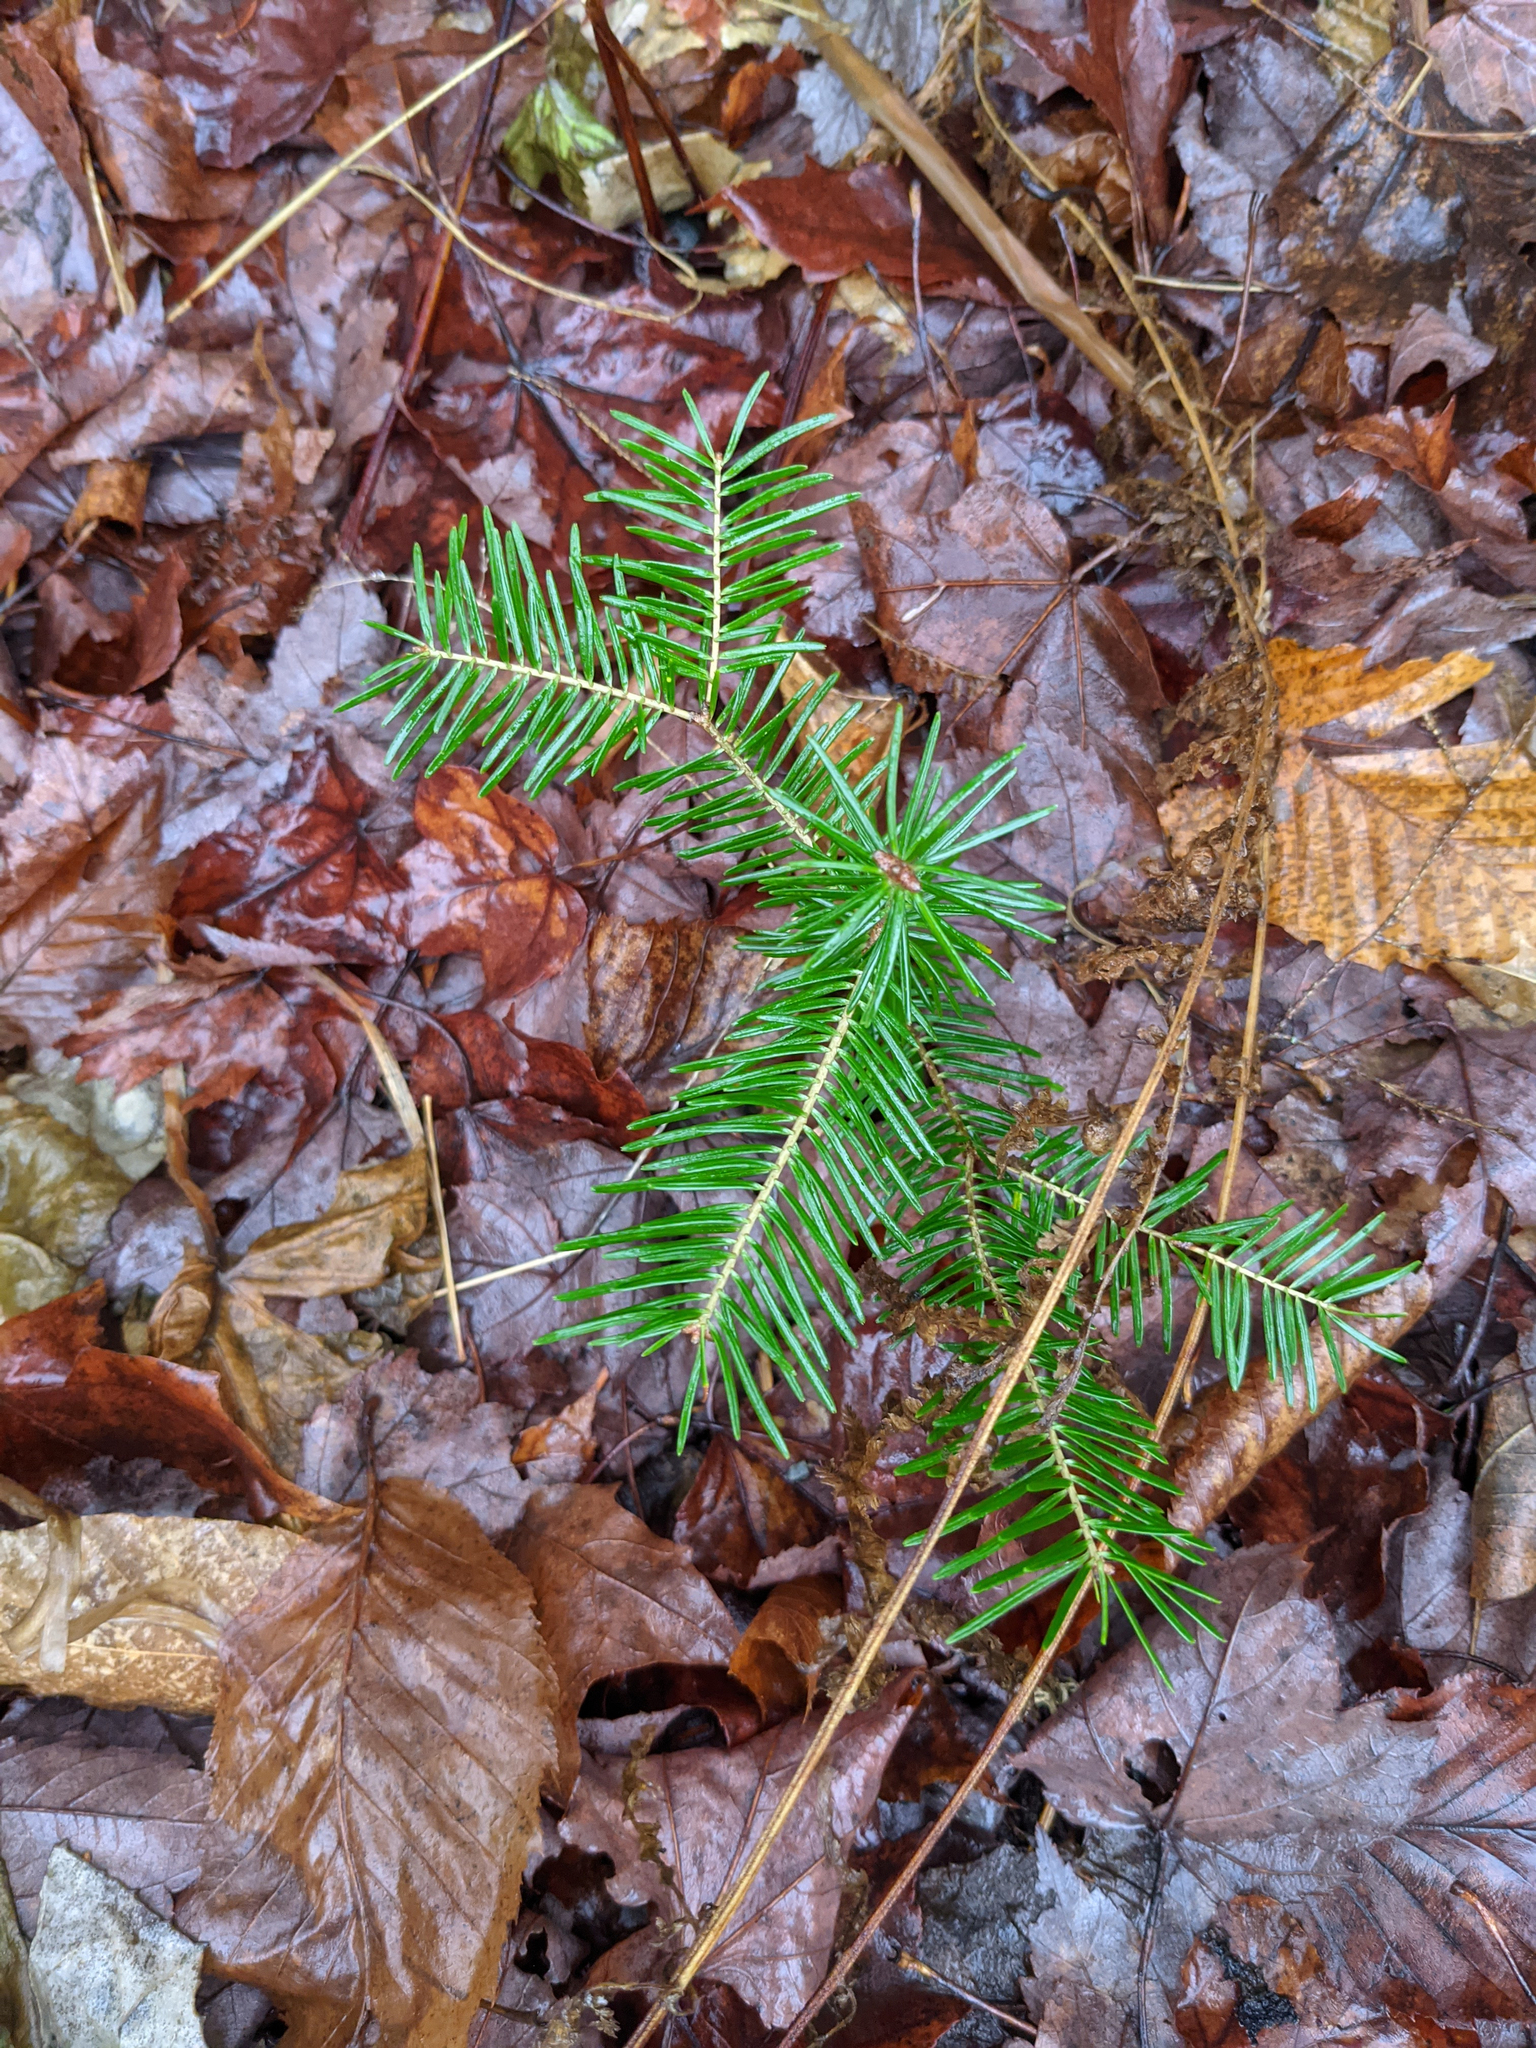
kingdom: Plantae
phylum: Tracheophyta
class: Pinopsida
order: Pinales
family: Pinaceae
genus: Abies
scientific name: Abies balsamea
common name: Balsam fir
